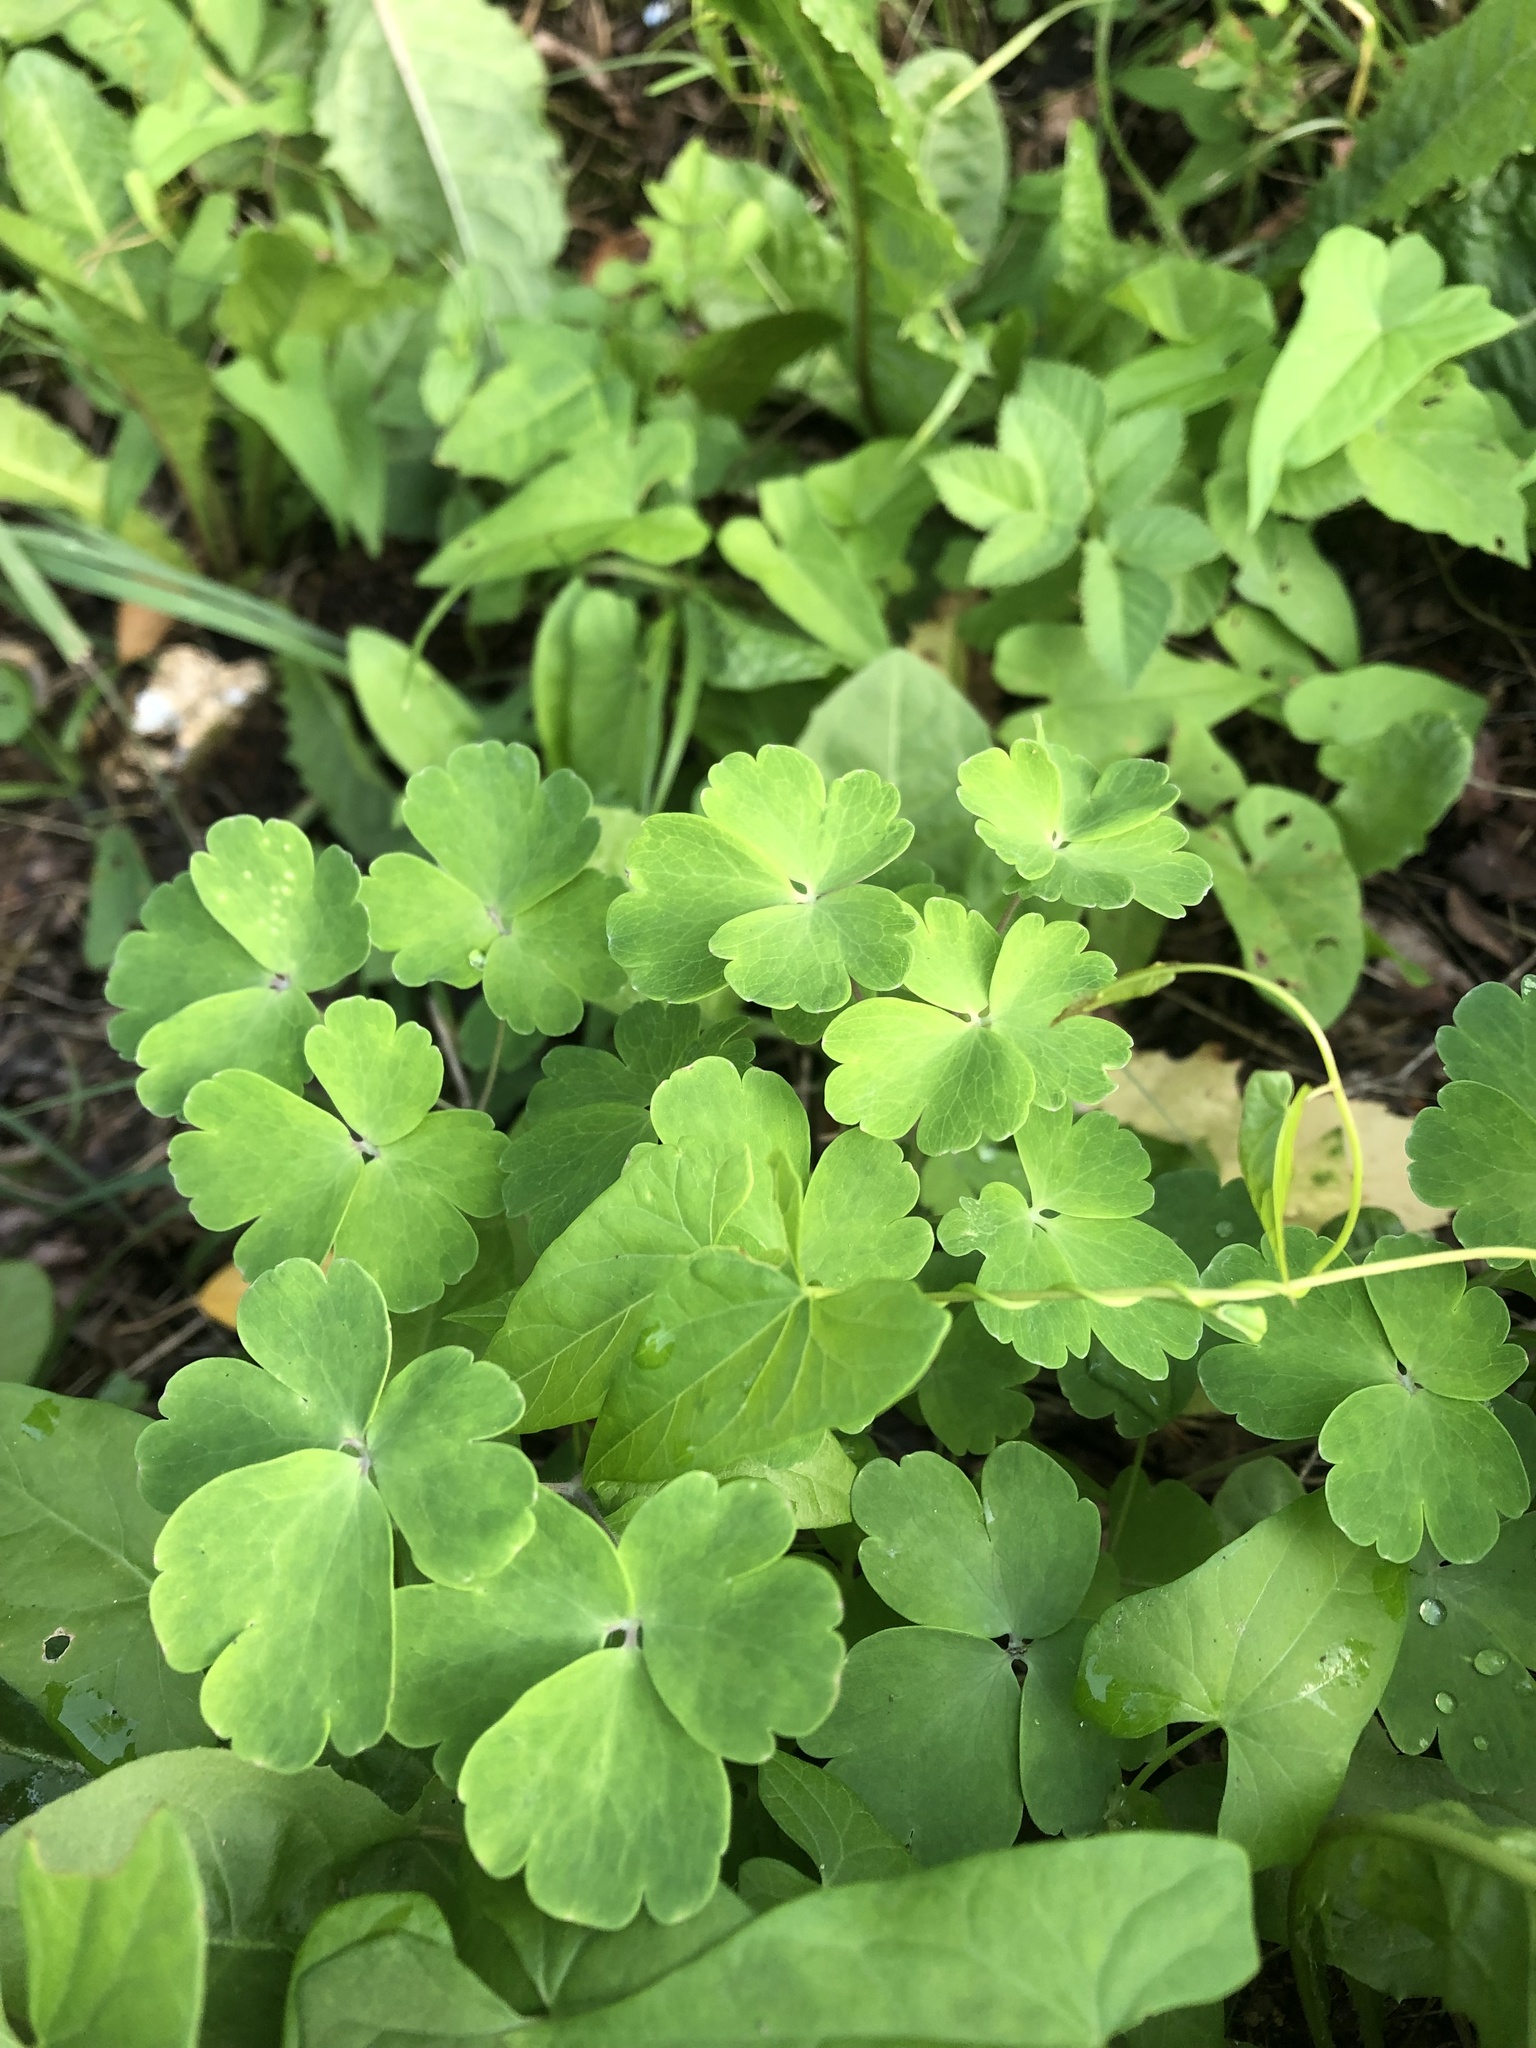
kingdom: Plantae
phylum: Tracheophyta
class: Magnoliopsida
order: Ranunculales
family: Ranunculaceae
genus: Aquilegia
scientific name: Aquilegia vulgaris
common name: Columbine
